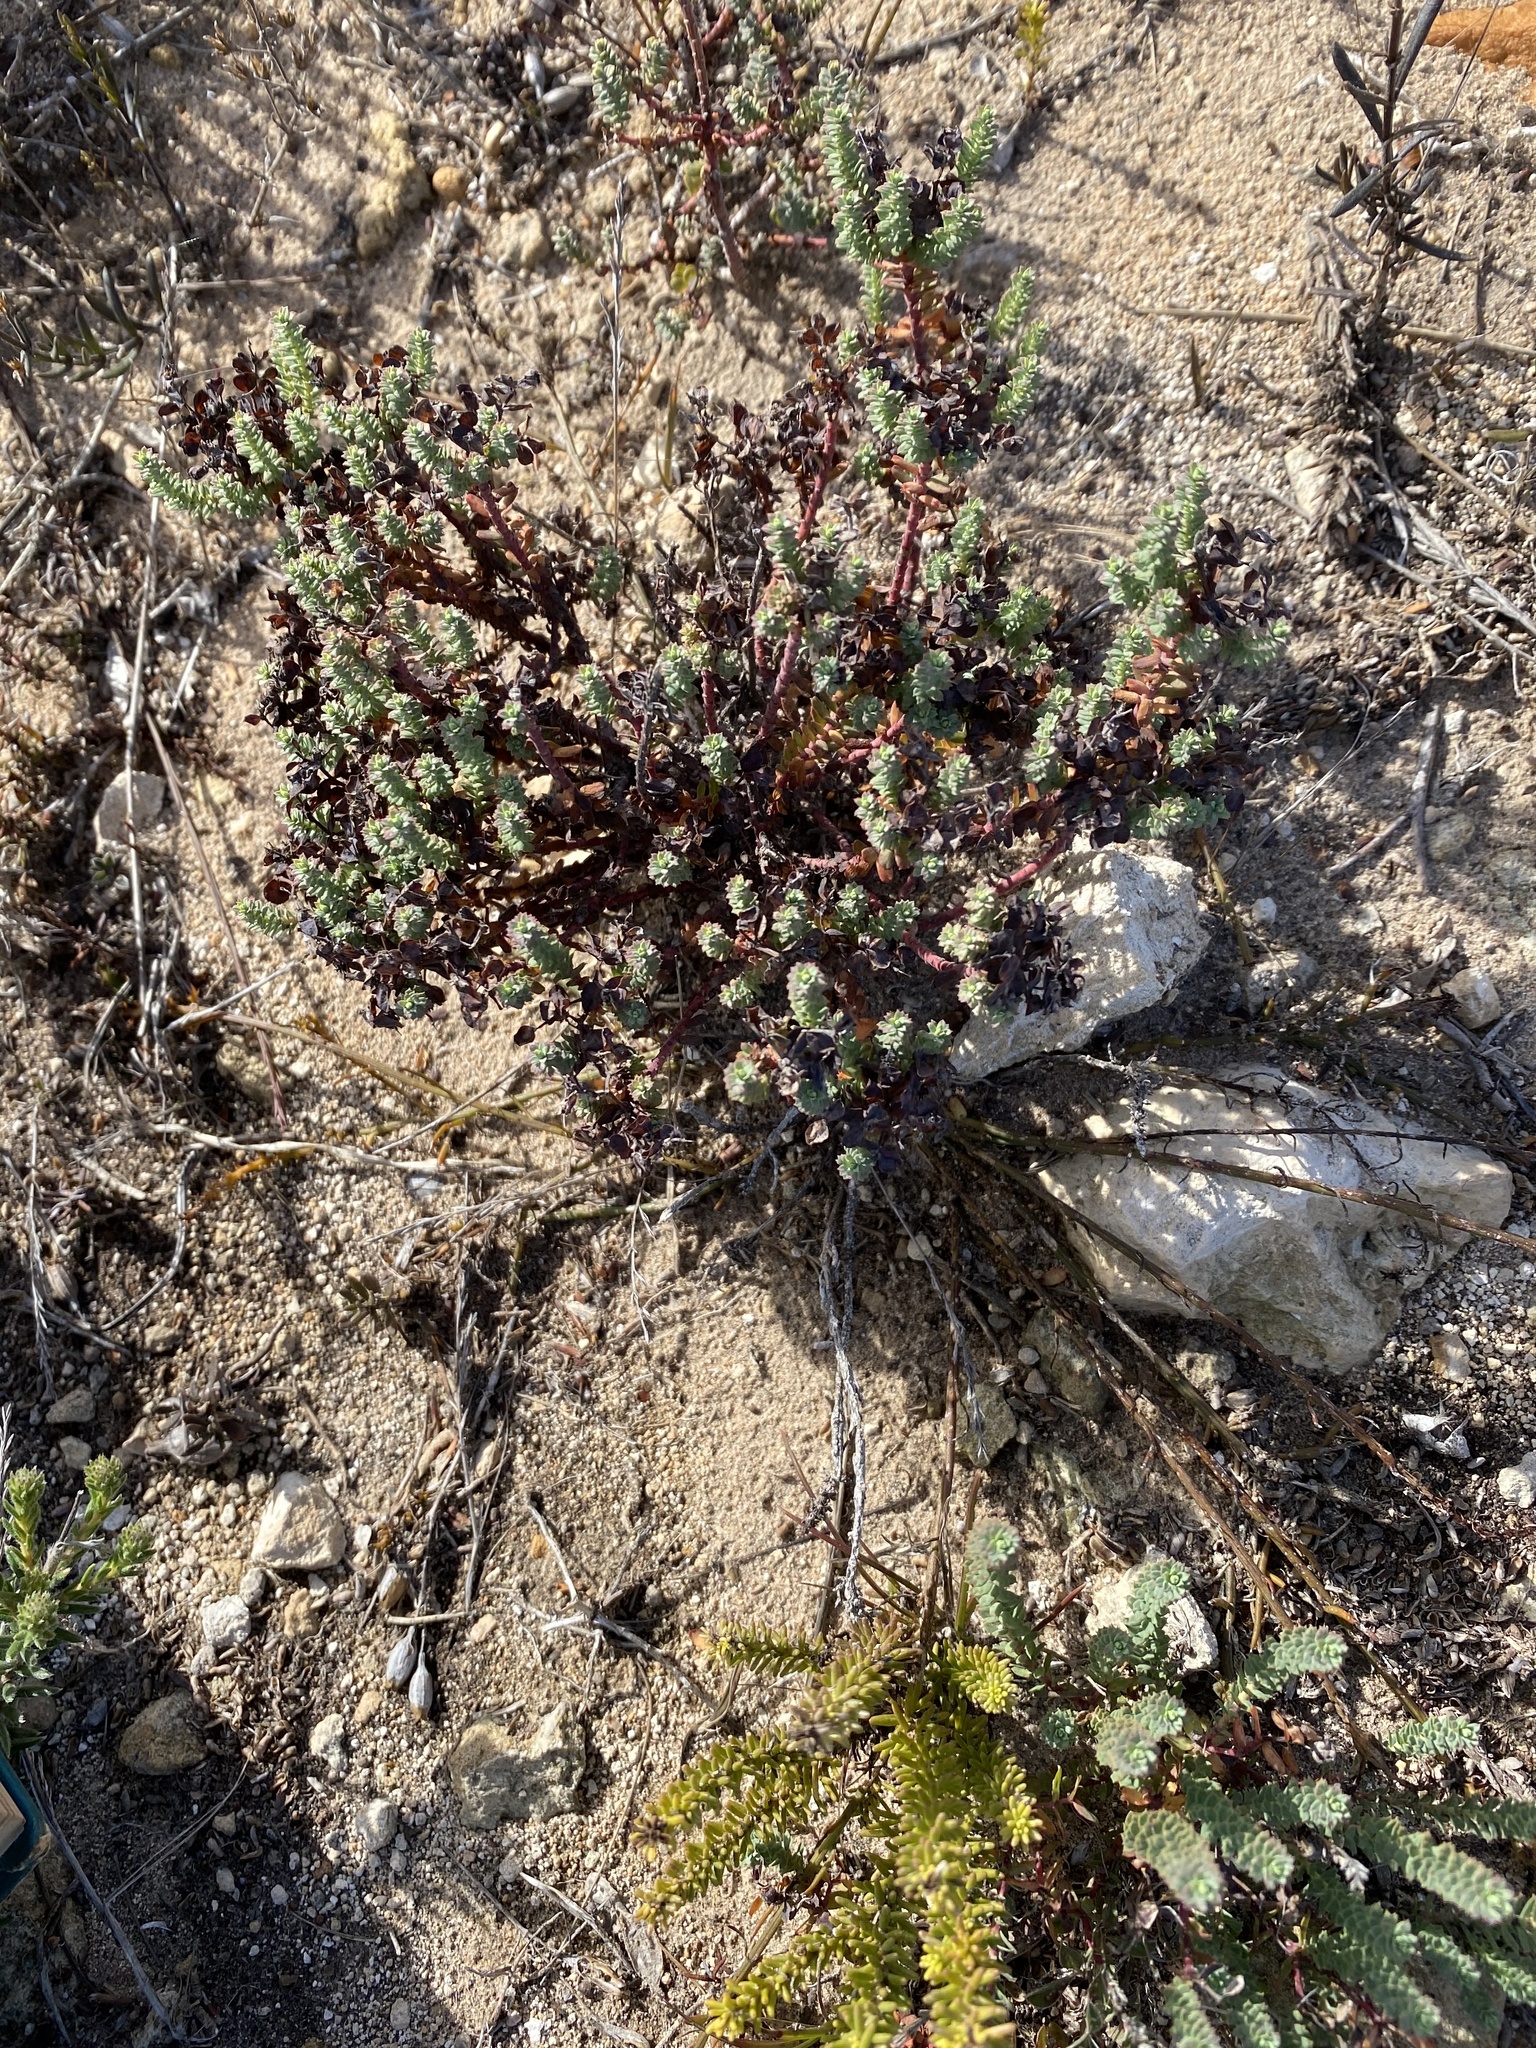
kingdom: Plantae
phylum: Tracheophyta
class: Magnoliopsida
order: Malpighiales
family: Euphorbiaceae
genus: Euphorbia
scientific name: Euphorbia foliosa
